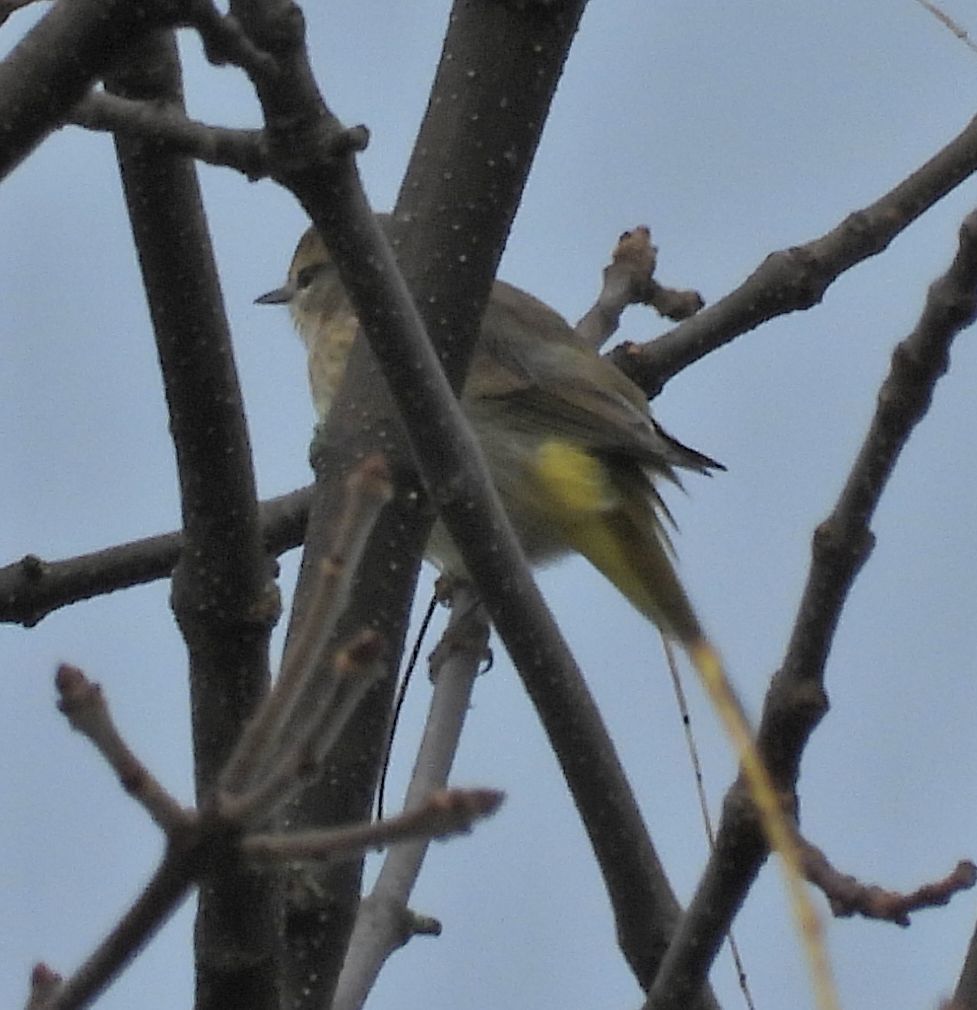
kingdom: Animalia
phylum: Chordata
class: Aves
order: Passeriformes
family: Parulidae
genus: Setophaga
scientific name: Setophaga palmarum
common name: Palm warbler
